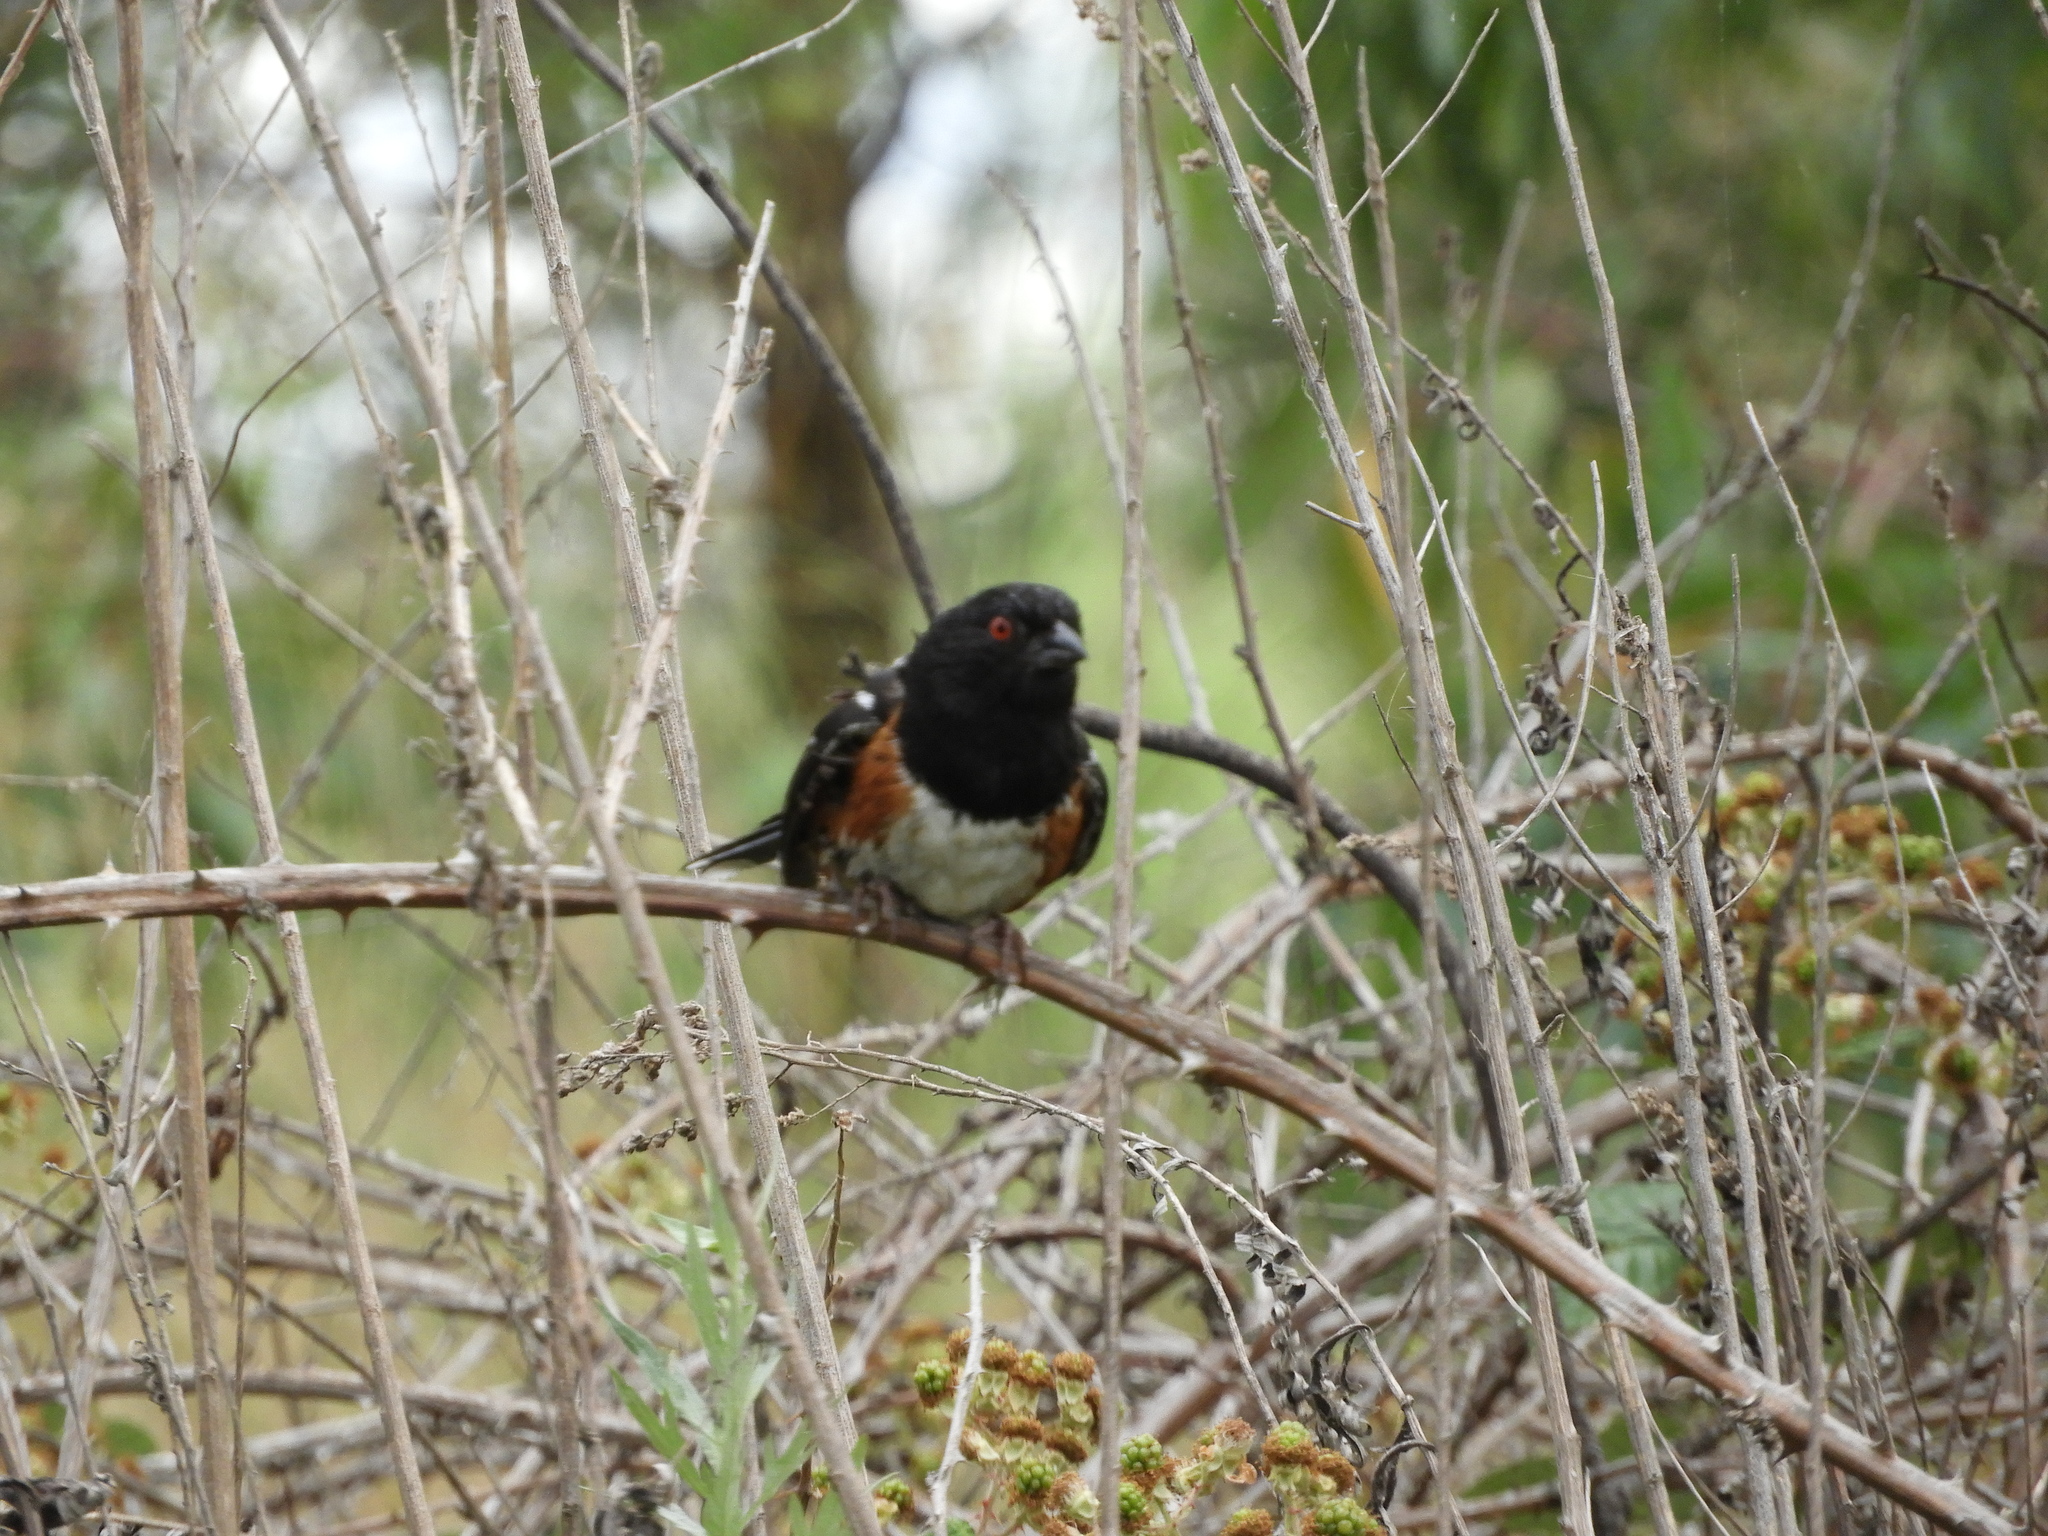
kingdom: Animalia
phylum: Chordata
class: Aves
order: Passeriformes
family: Passerellidae
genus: Pipilo
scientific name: Pipilo maculatus
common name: Spotted towhee
